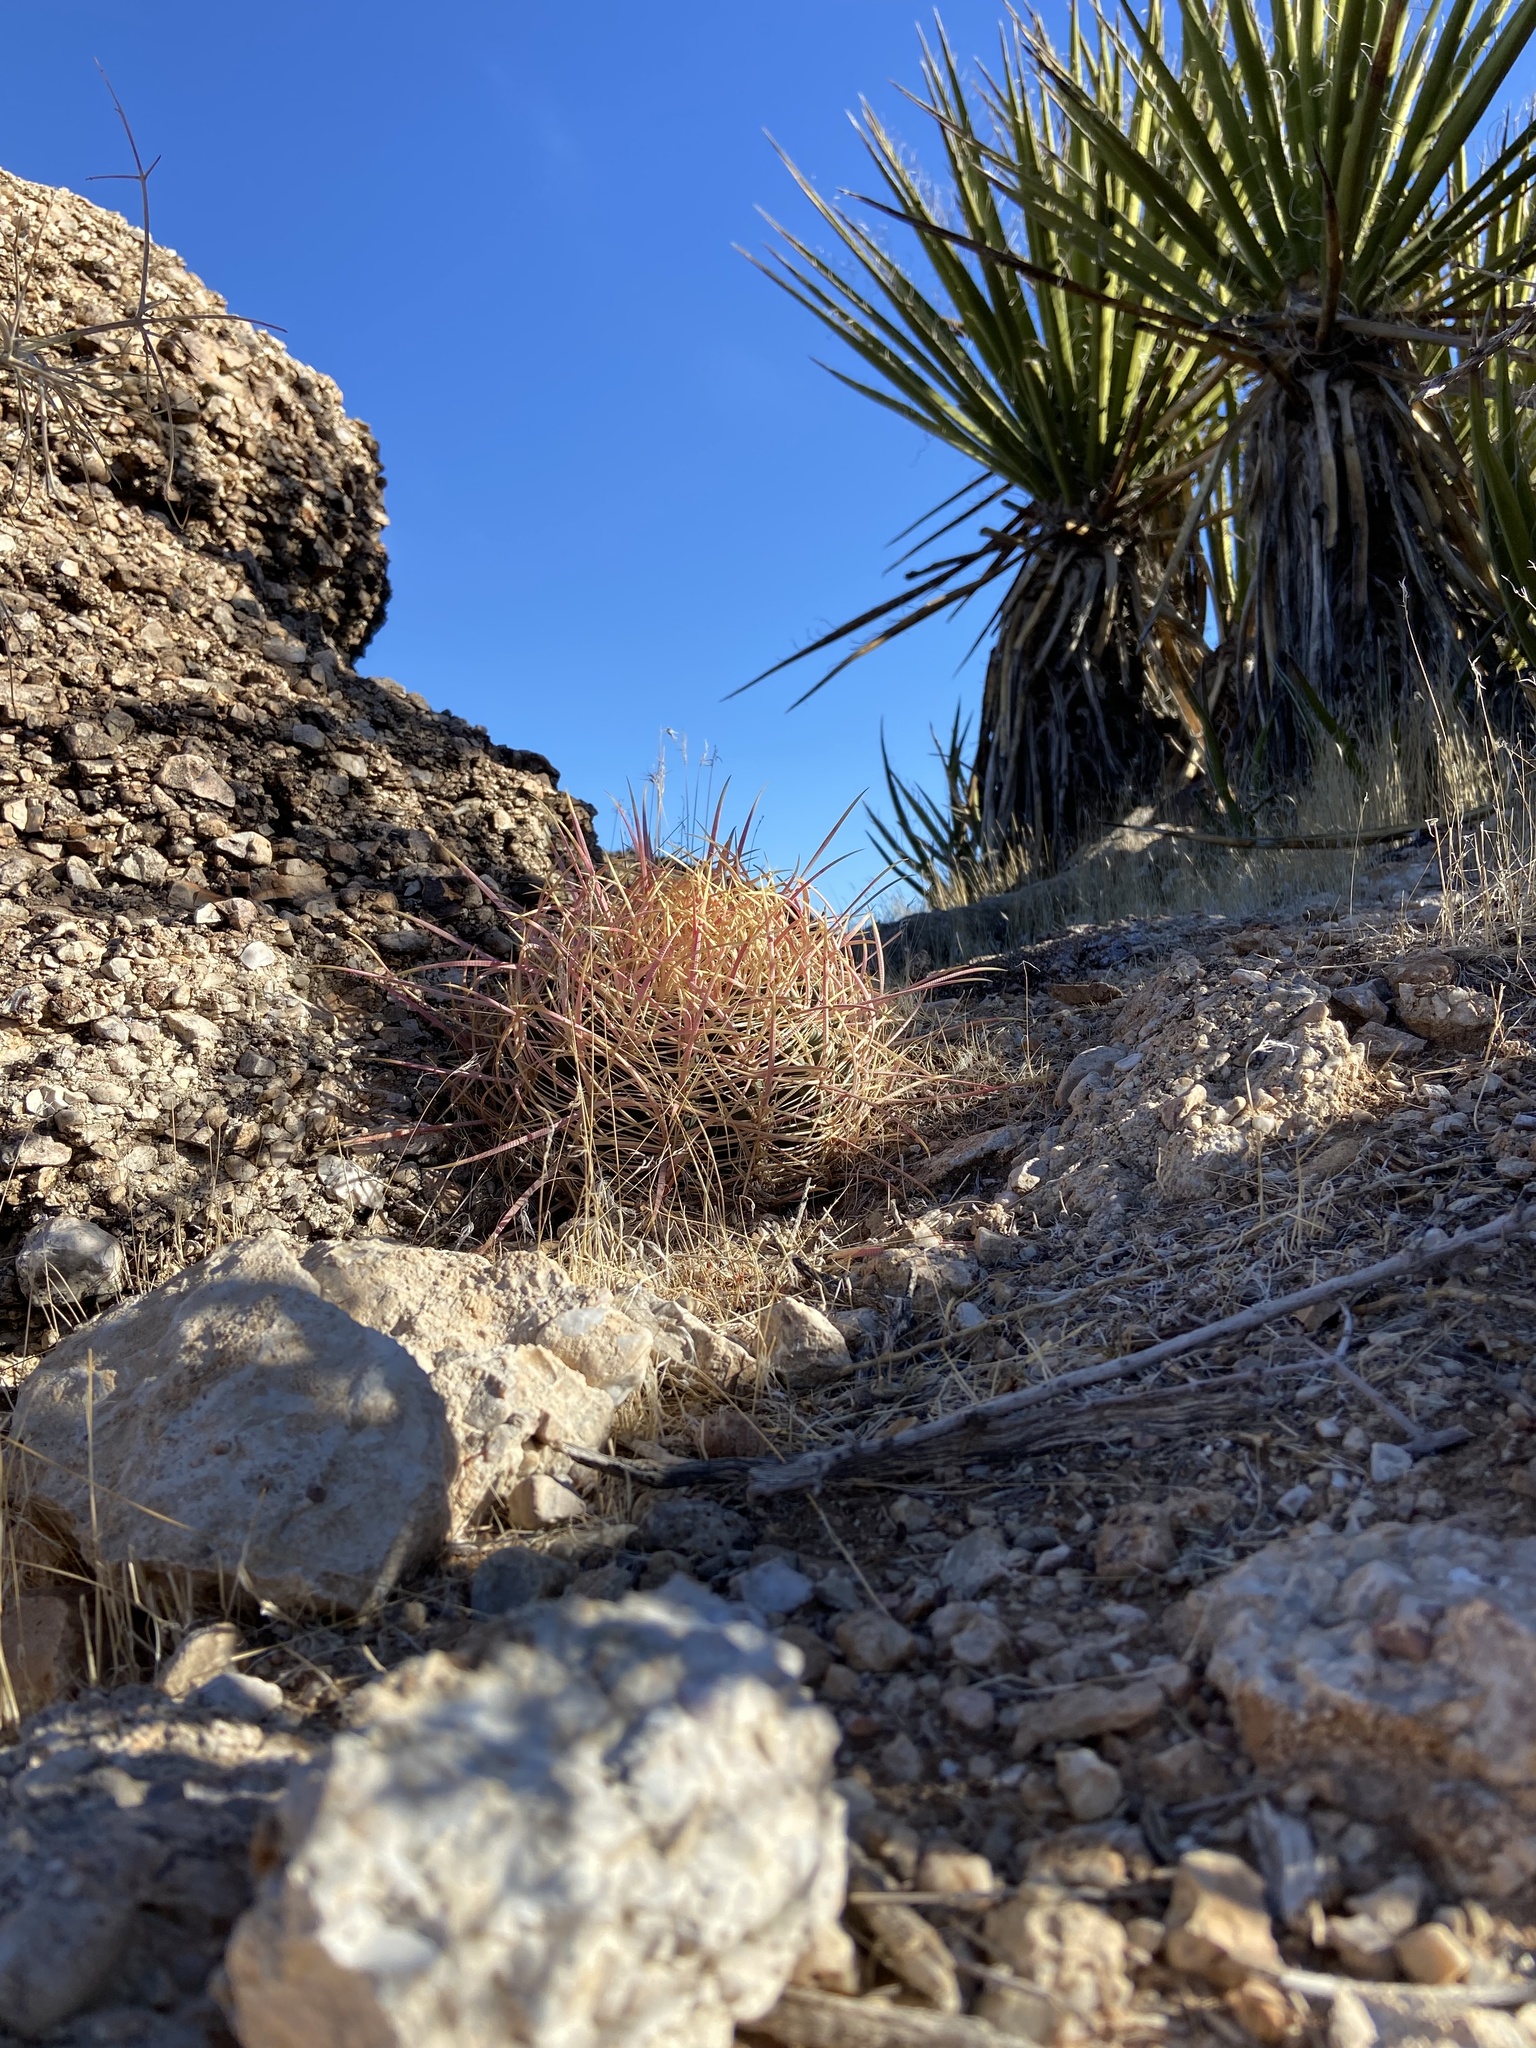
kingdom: Plantae
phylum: Tracheophyta
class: Magnoliopsida
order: Caryophyllales
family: Cactaceae
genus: Ferocactus
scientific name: Ferocactus cylindraceus
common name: California barrel cactus
